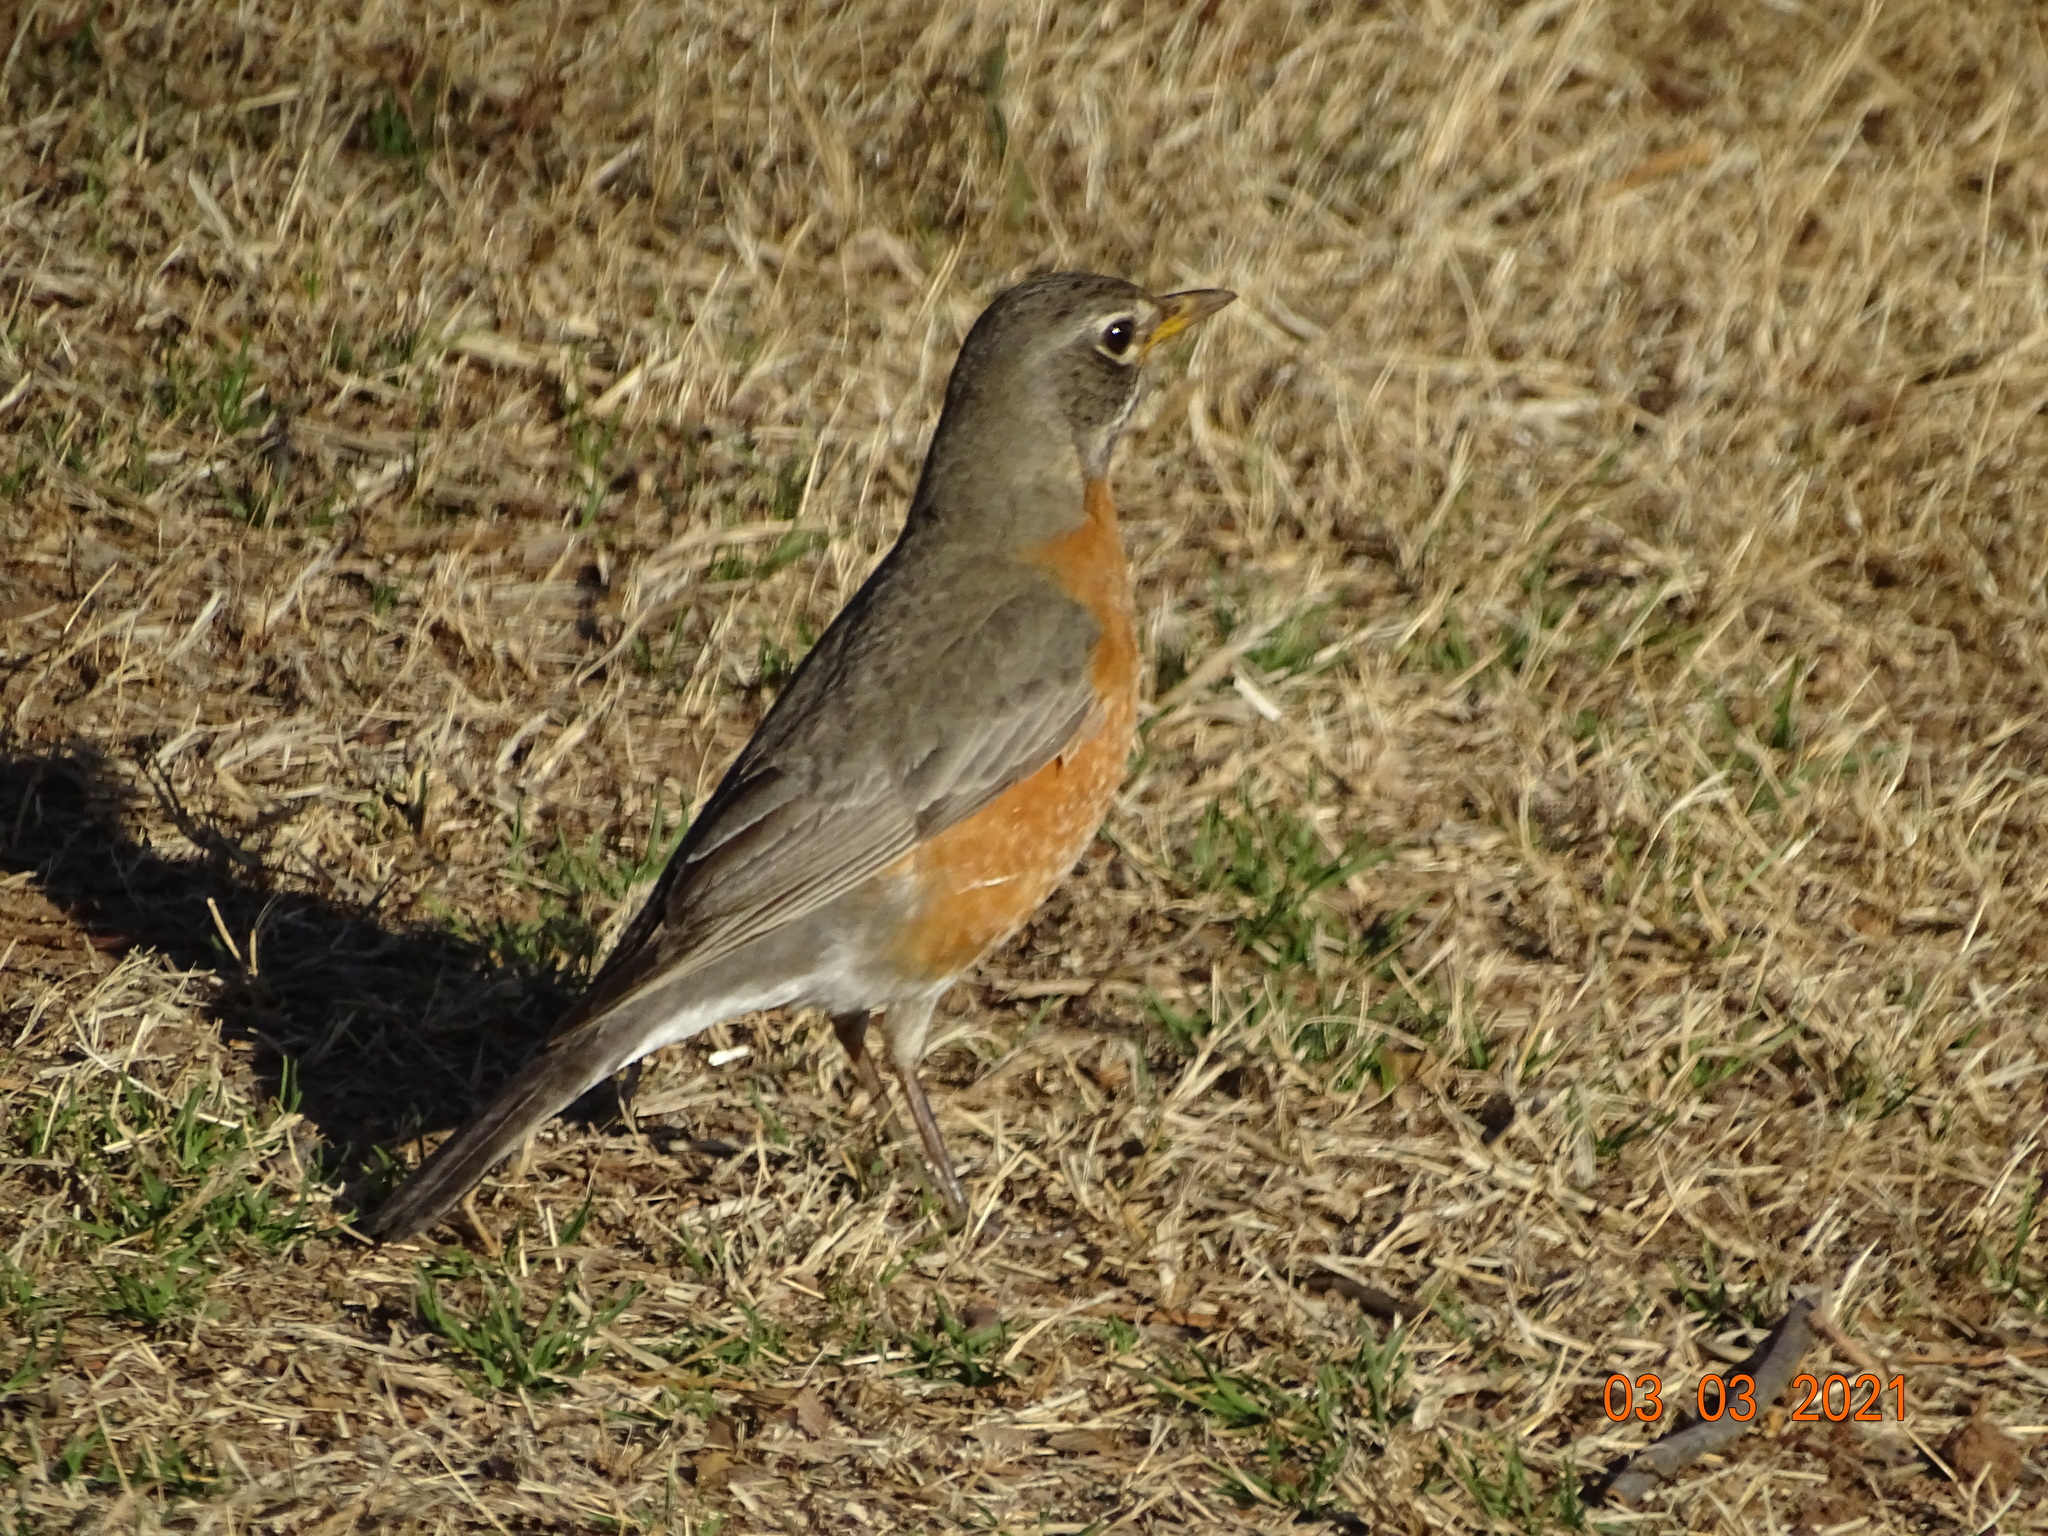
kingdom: Animalia
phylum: Chordata
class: Aves
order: Passeriformes
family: Turdidae
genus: Turdus
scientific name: Turdus migratorius
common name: American robin
